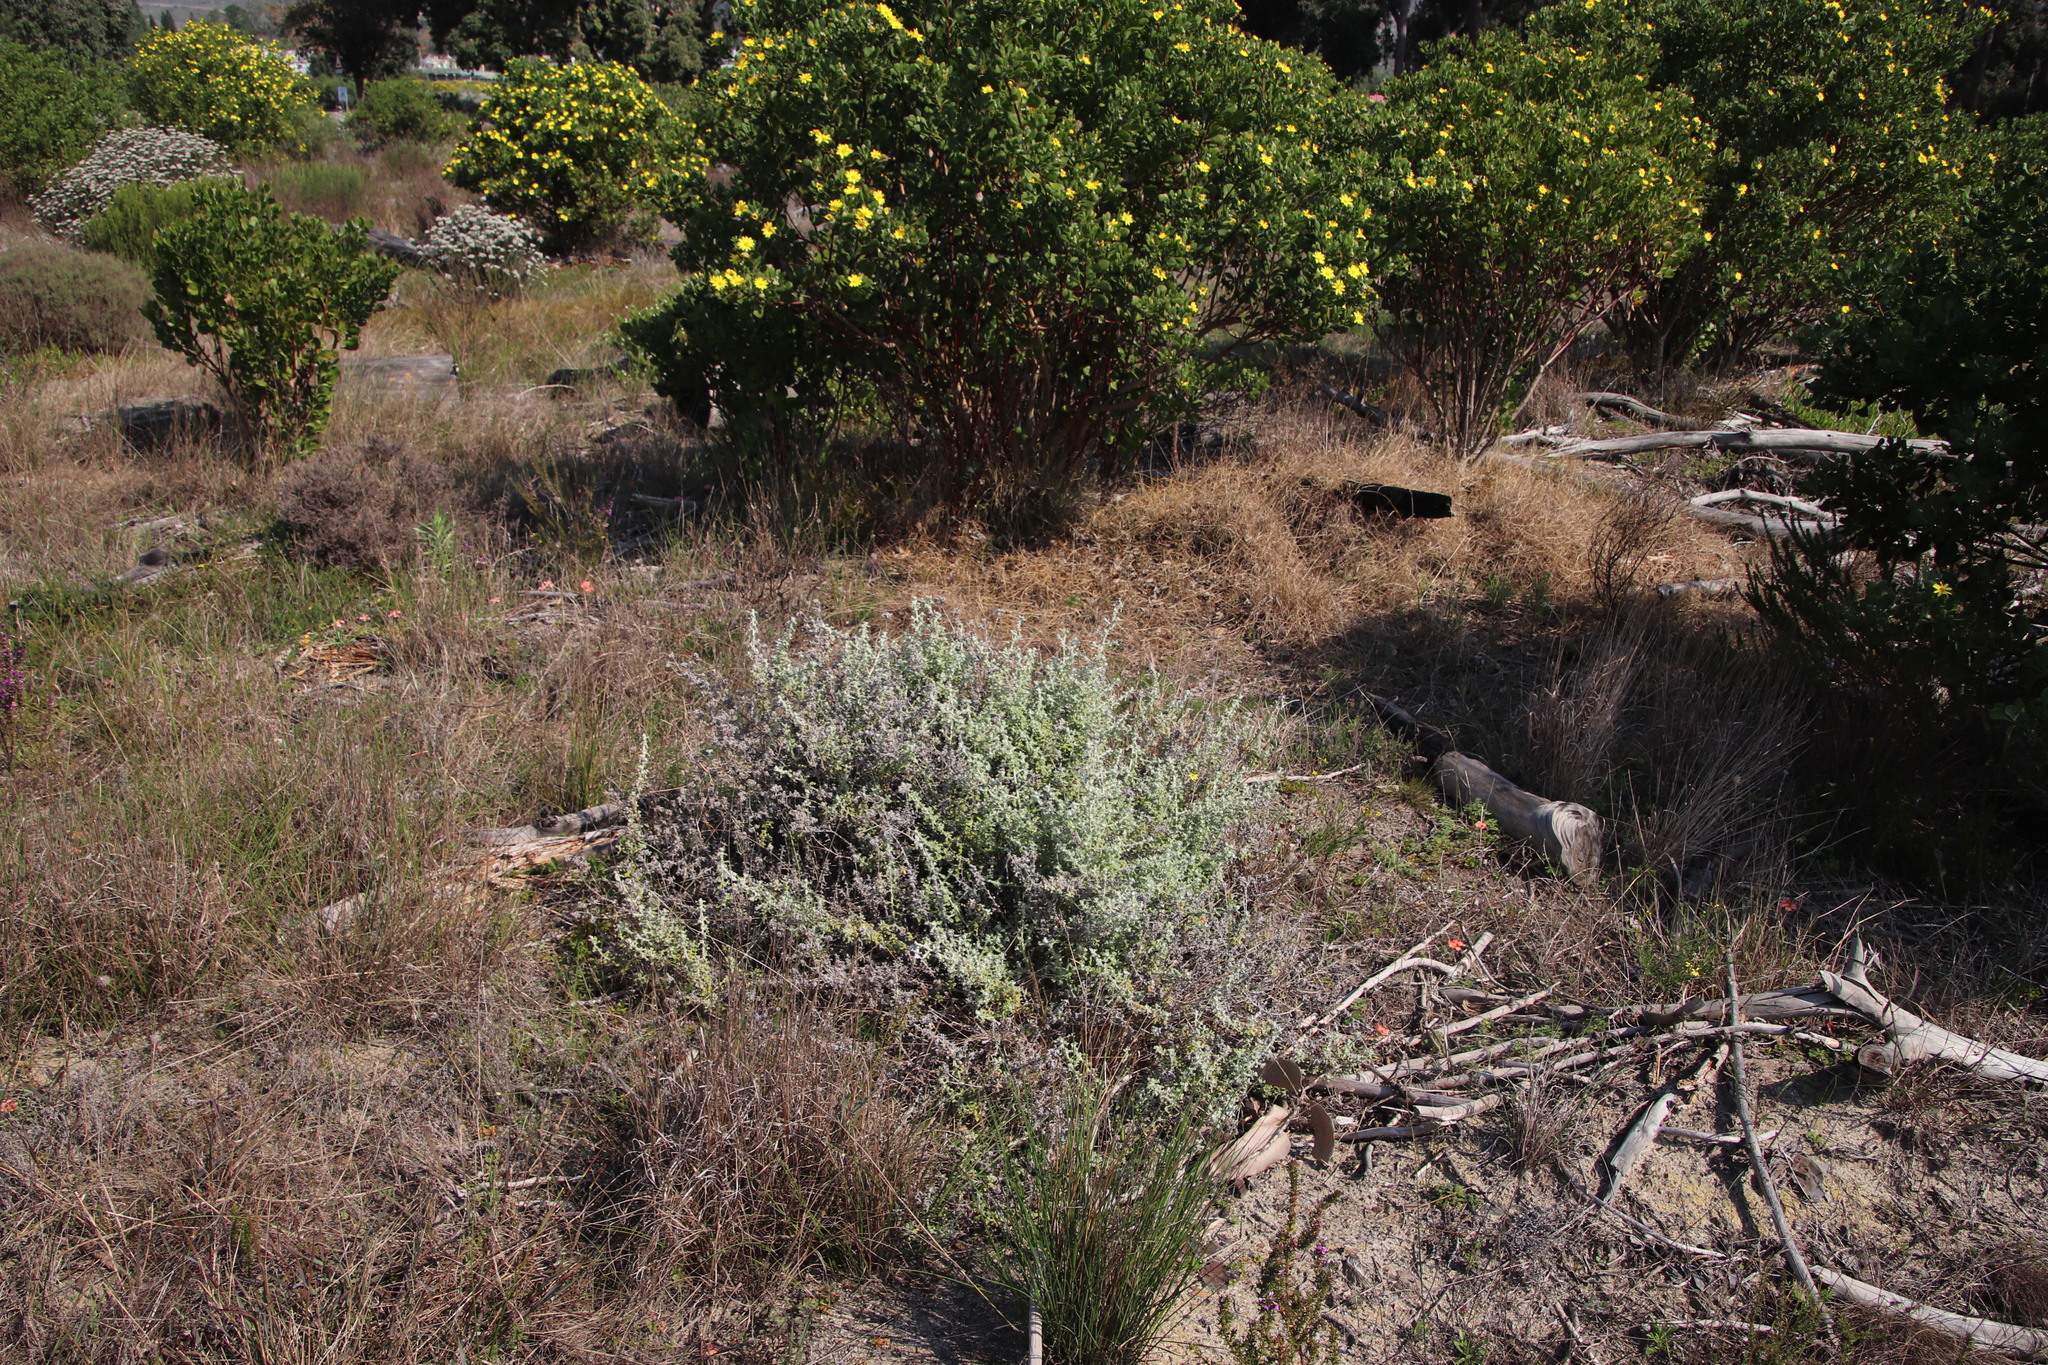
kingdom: Plantae
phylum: Tracheophyta
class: Magnoliopsida
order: Asterales
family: Asteraceae
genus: Helichrysum
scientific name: Helichrysum patulum
